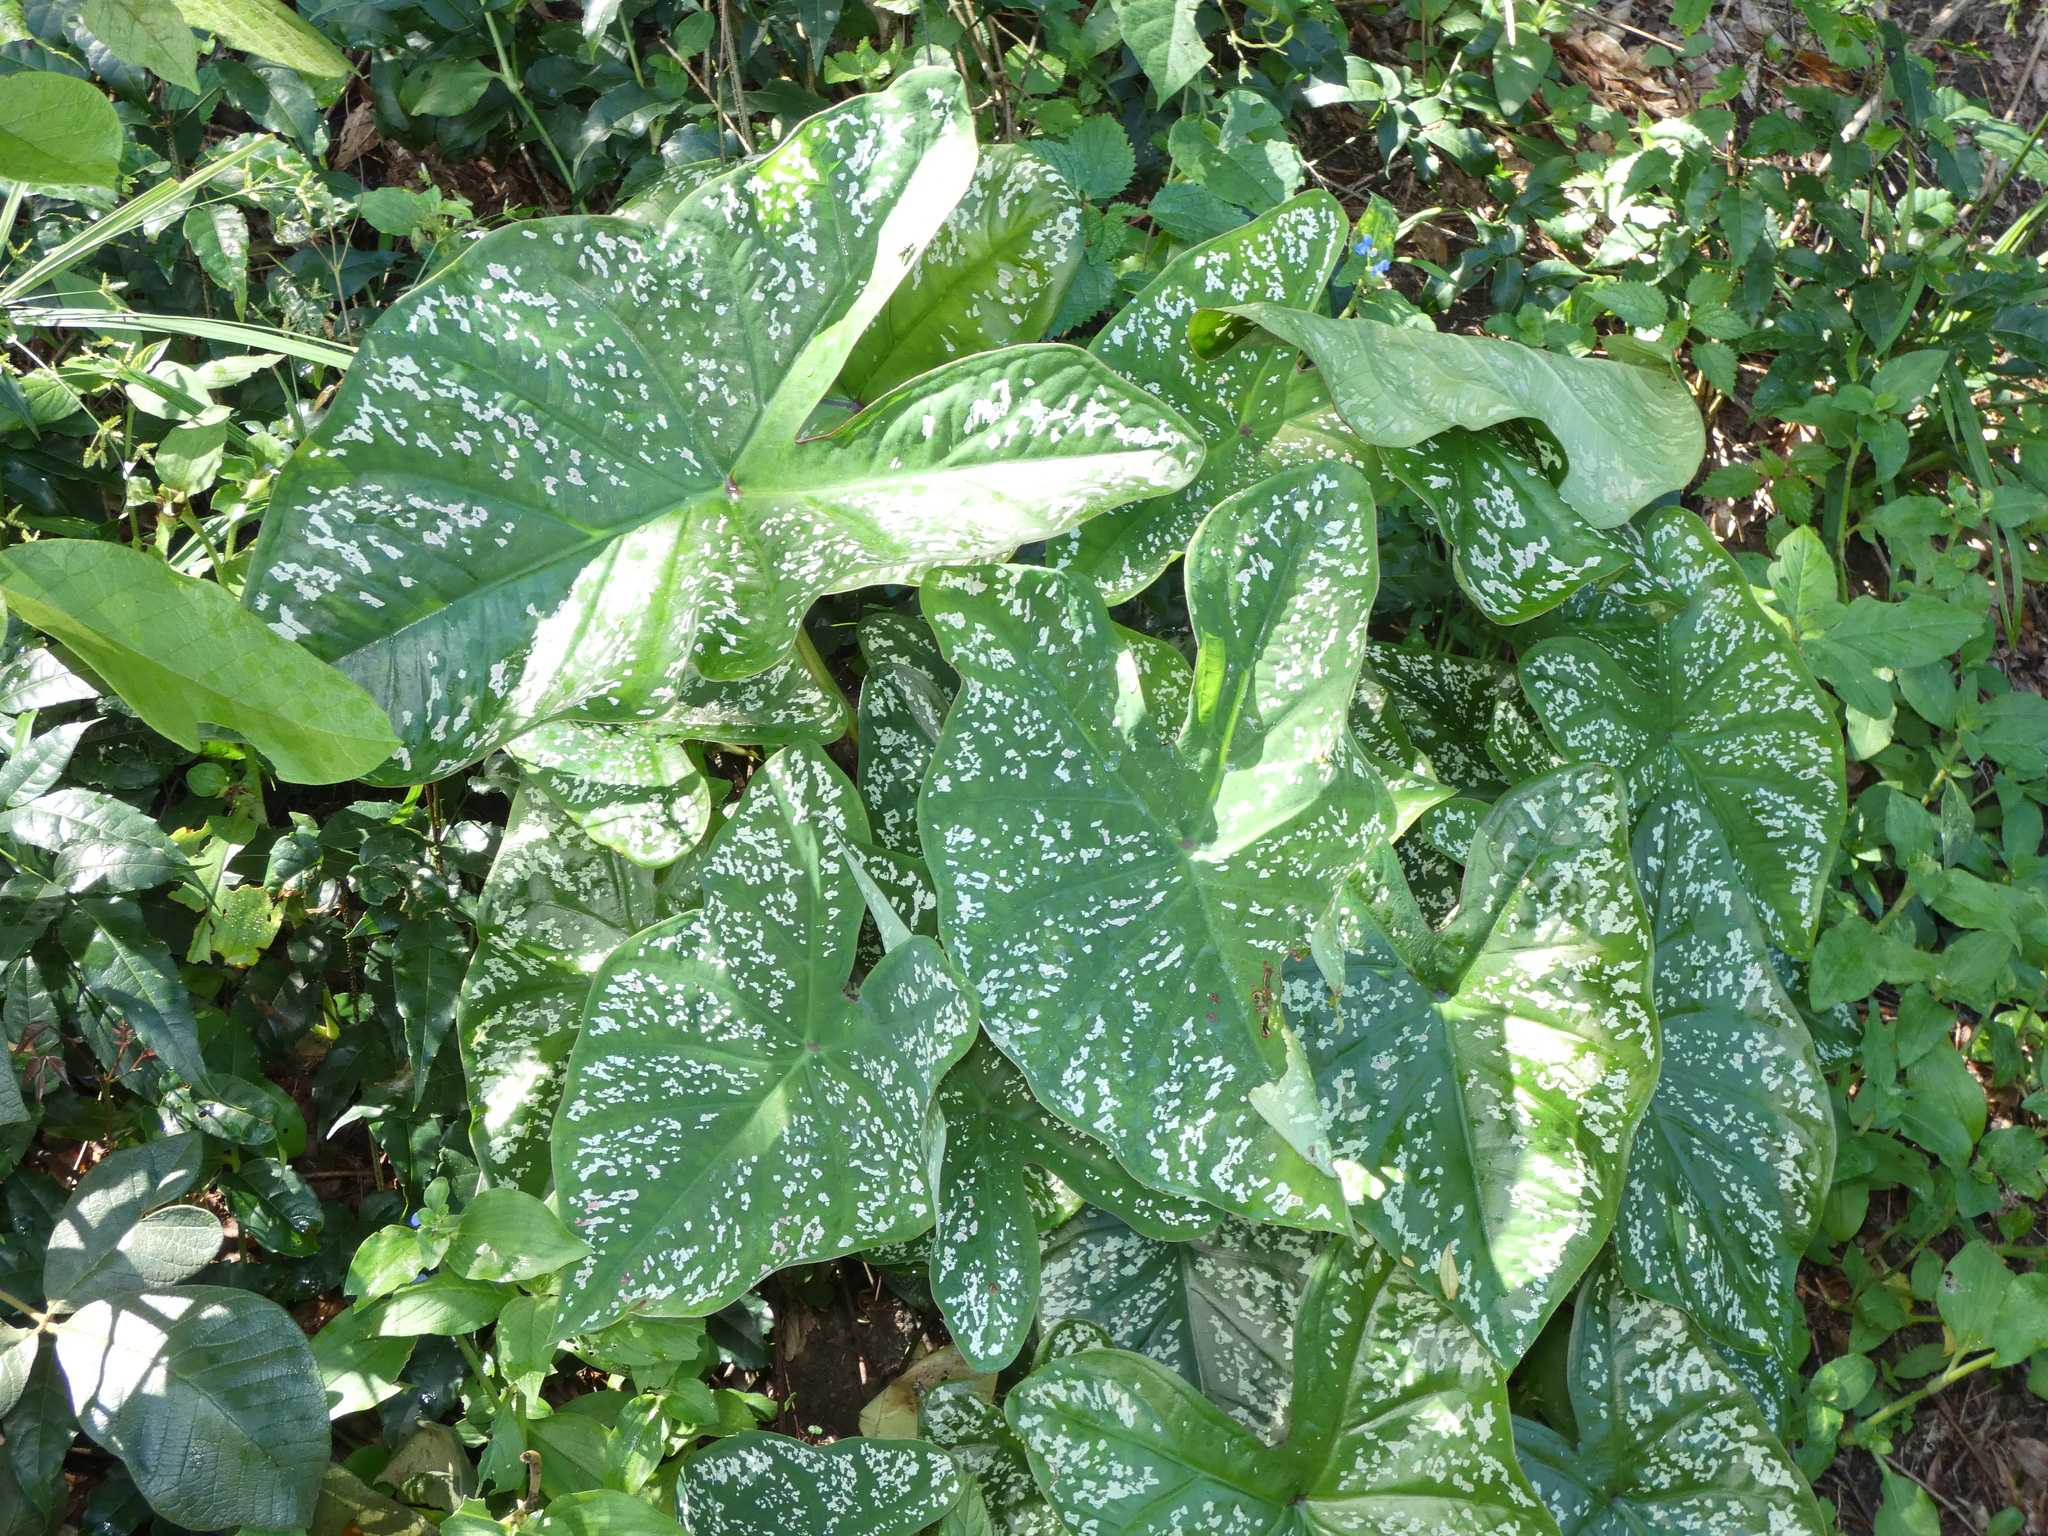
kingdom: Plantae
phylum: Tracheophyta
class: Liliopsida
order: Alismatales
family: Araceae
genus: Caladium
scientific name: Caladium bicolor
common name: Artist's pallet
